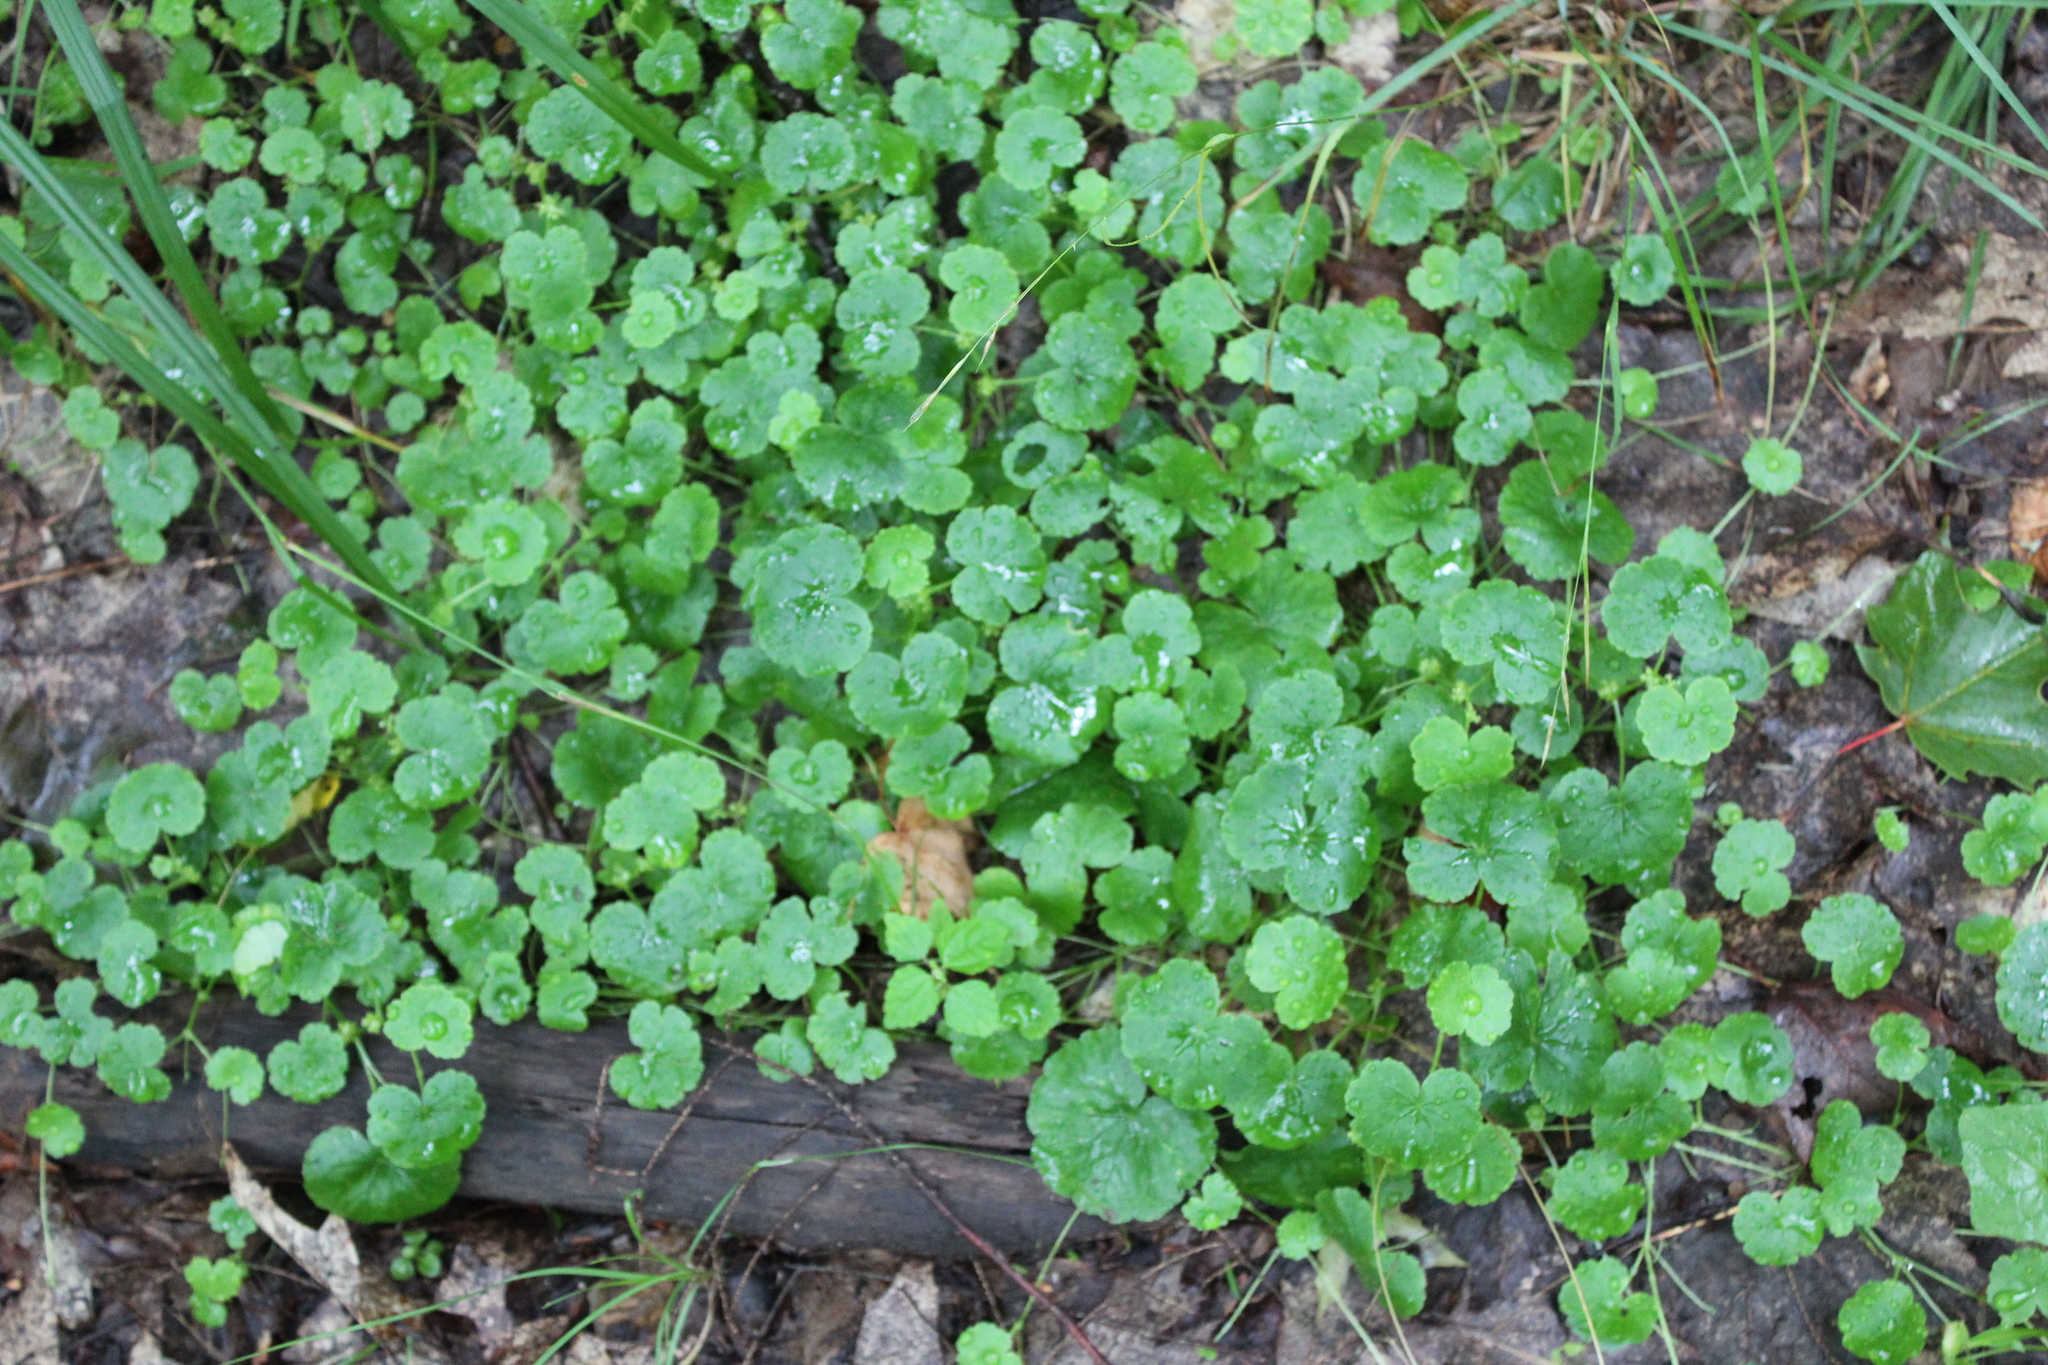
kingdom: Plantae
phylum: Tracheophyta
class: Magnoliopsida
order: Apiales
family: Araliaceae
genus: Hydrocotyle
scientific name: Hydrocotyle americana
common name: American water-pennywort
